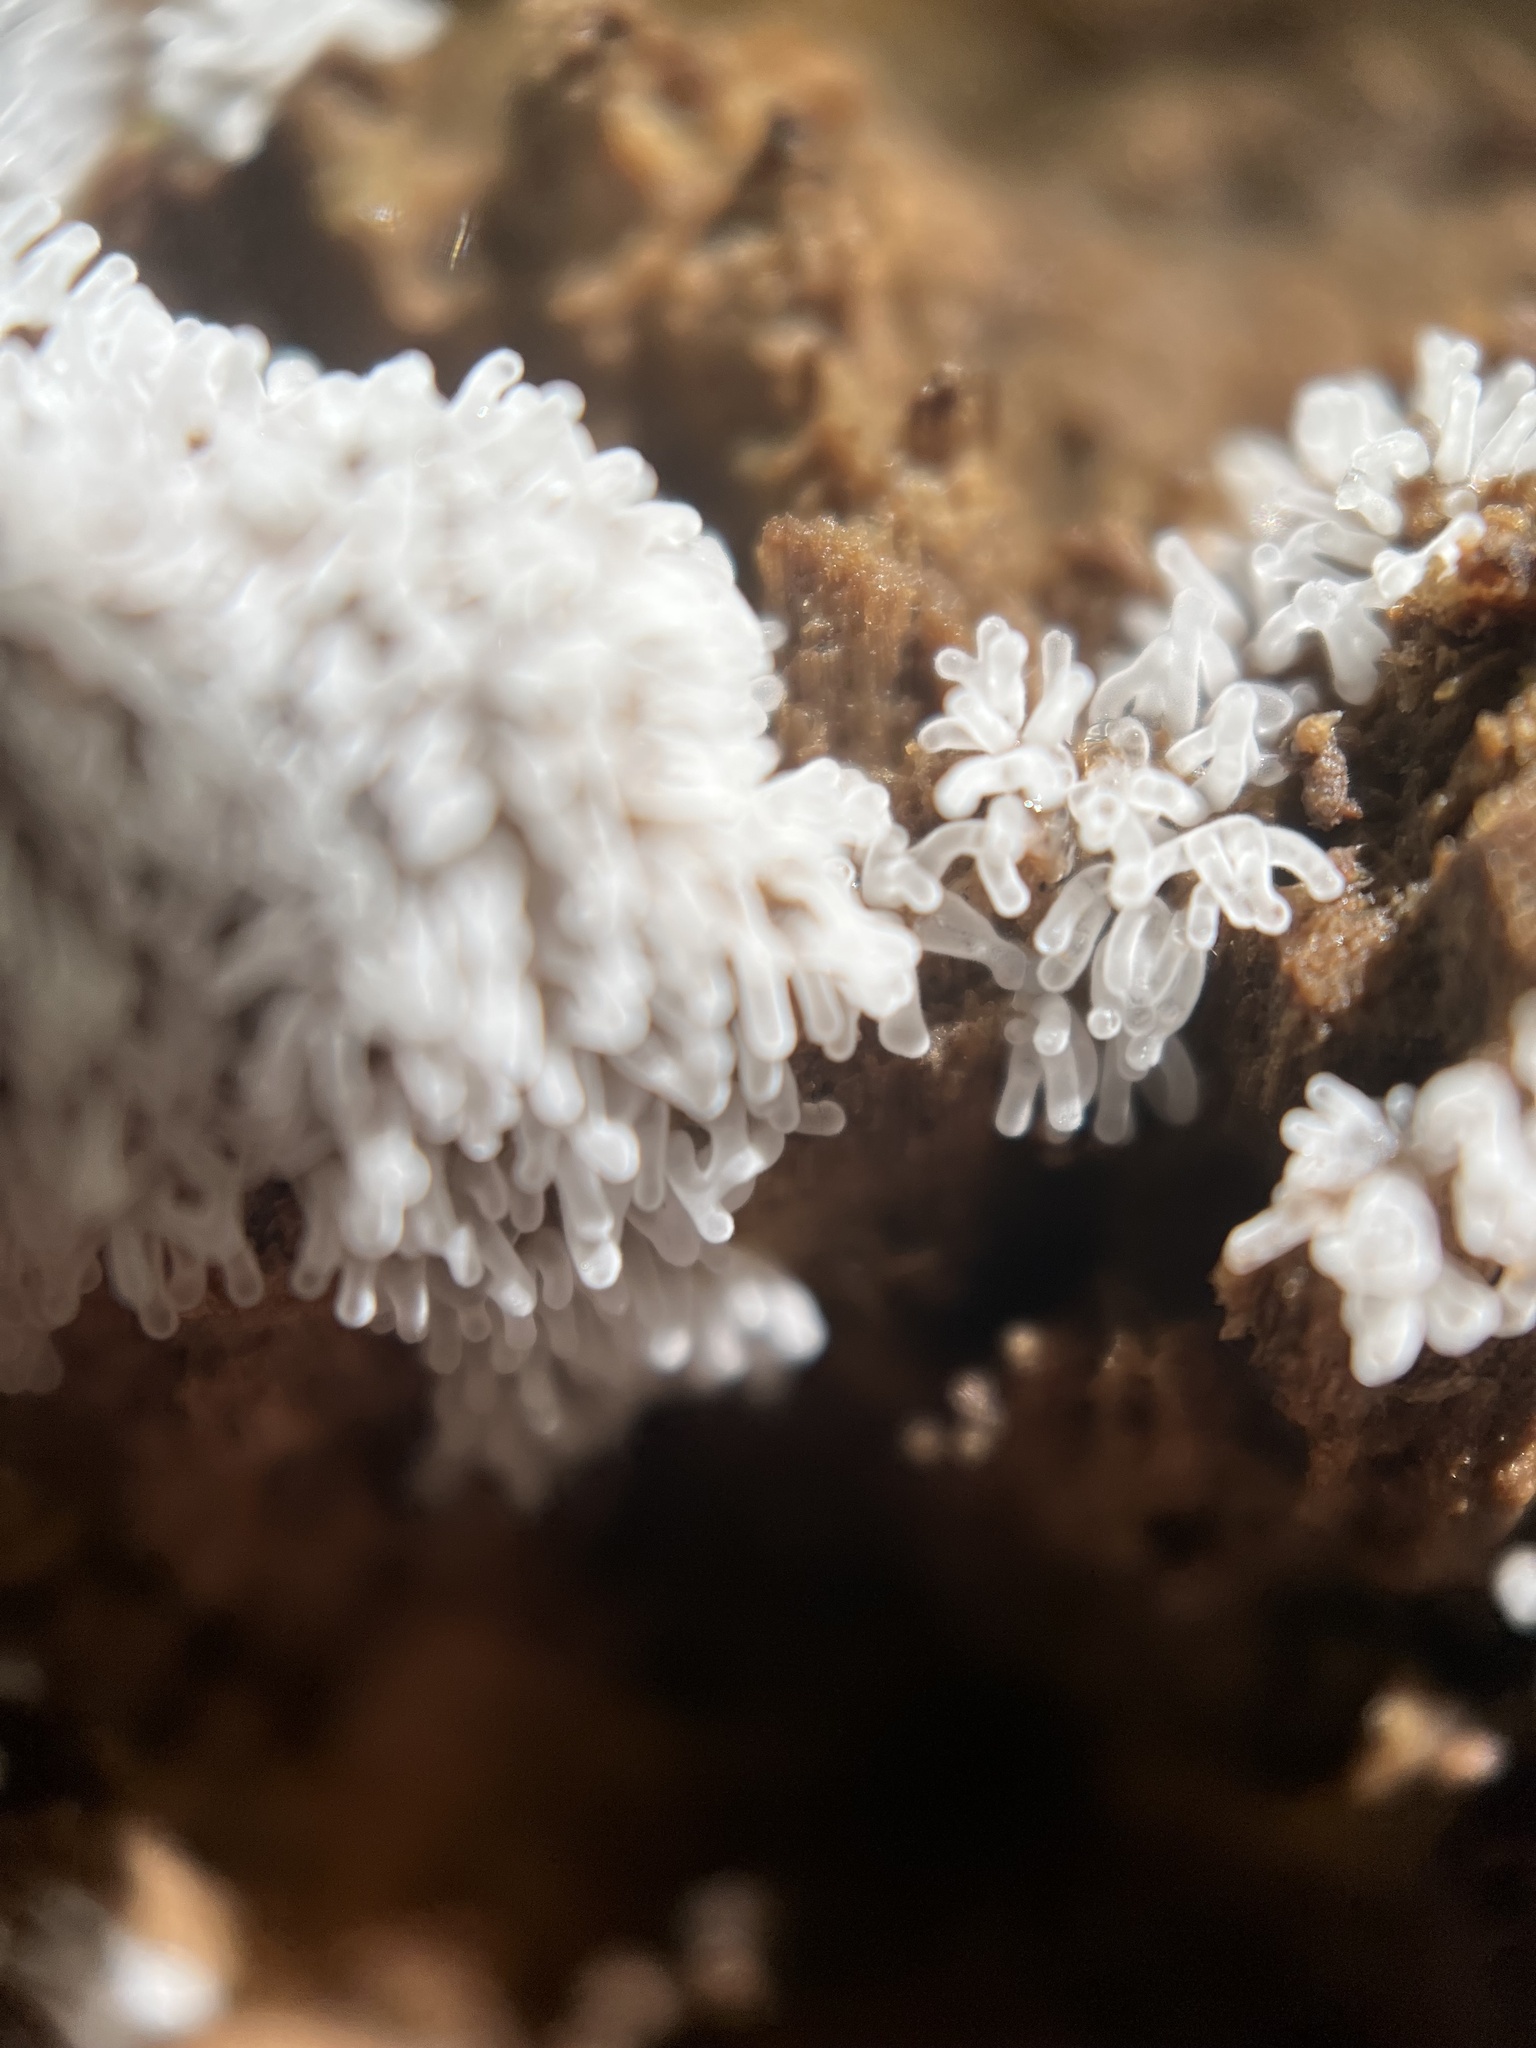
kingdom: Protozoa
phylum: Mycetozoa
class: Protosteliomycetes
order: Ceratiomyxales
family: Ceratiomyxaceae
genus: Ceratiomyxa
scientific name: Ceratiomyxa fruticulosa
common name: Honeycomb coral slime mold
